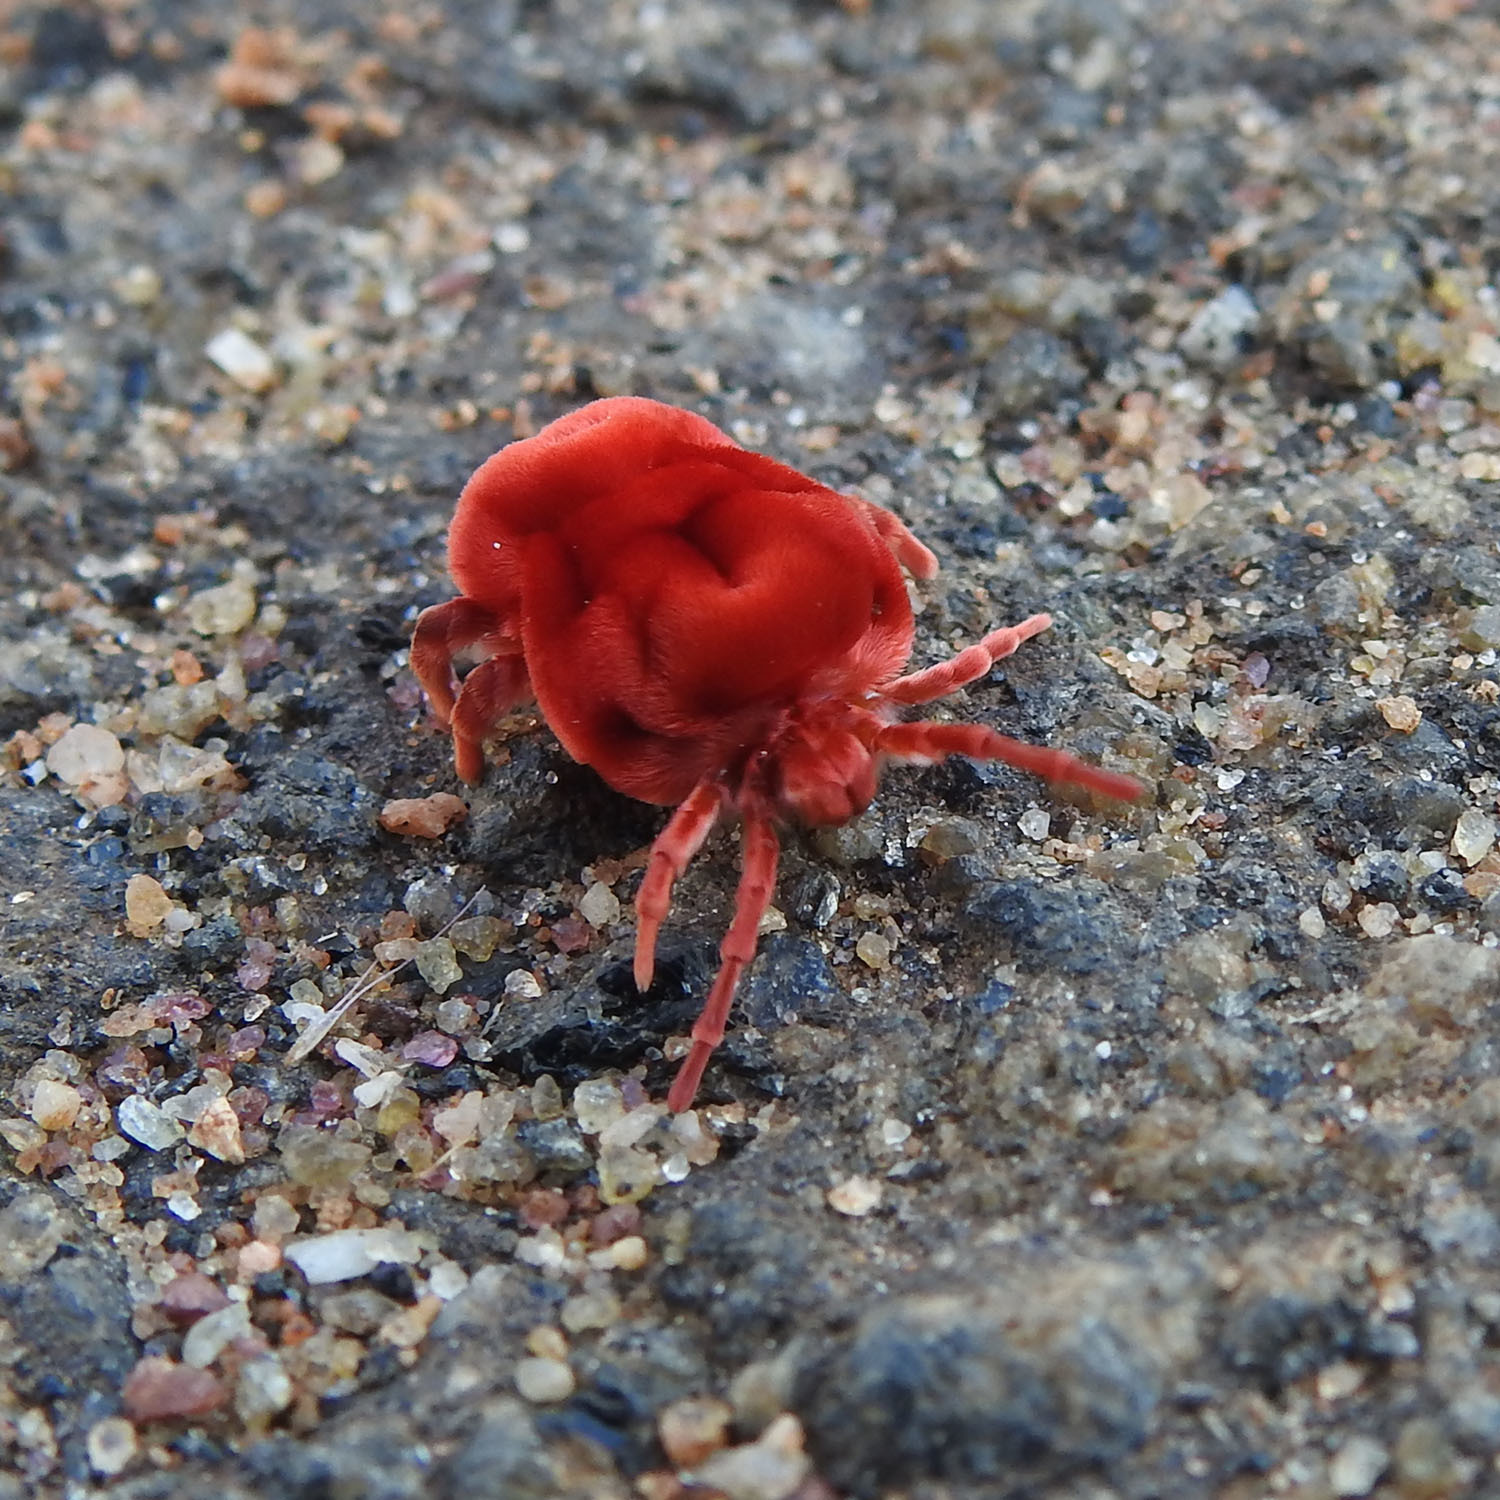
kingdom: Animalia
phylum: Arthropoda
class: Arachnida
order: Trombidiformes
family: Leeuwenhoekiidae
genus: Dinothrombium
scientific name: Dinothrombium
